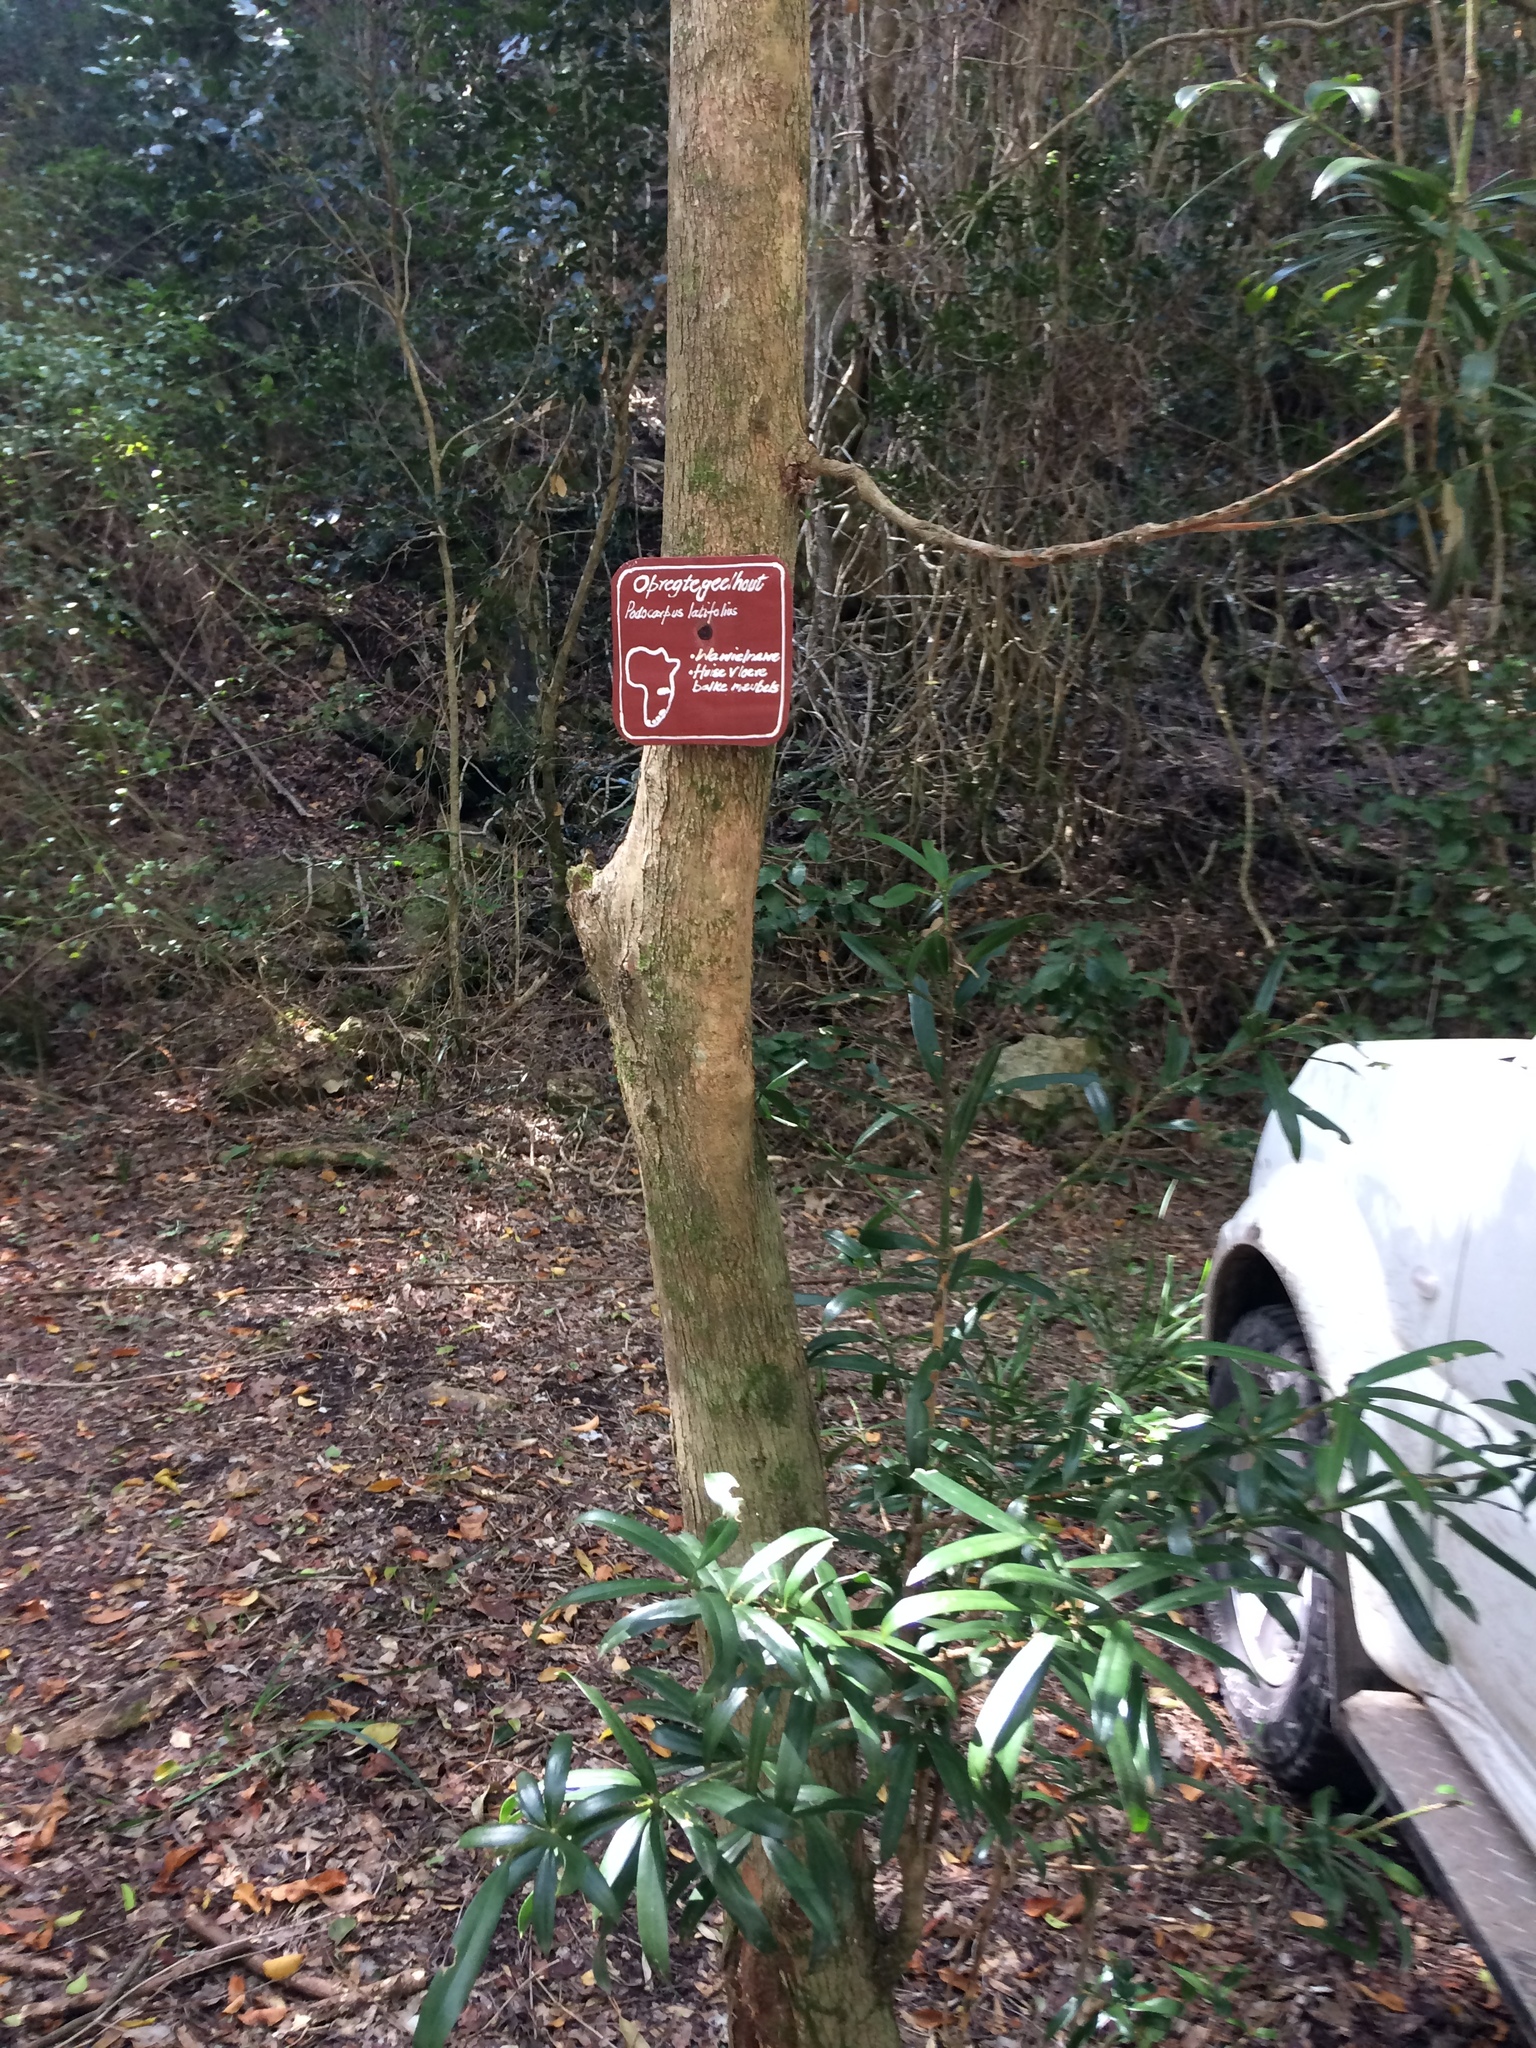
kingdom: Plantae
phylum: Tracheophyta
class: Pinopsida
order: Pinales
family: Podocarpaceae
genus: Podocarpus
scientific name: Podocarpus latifolius
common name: True yellowwood
